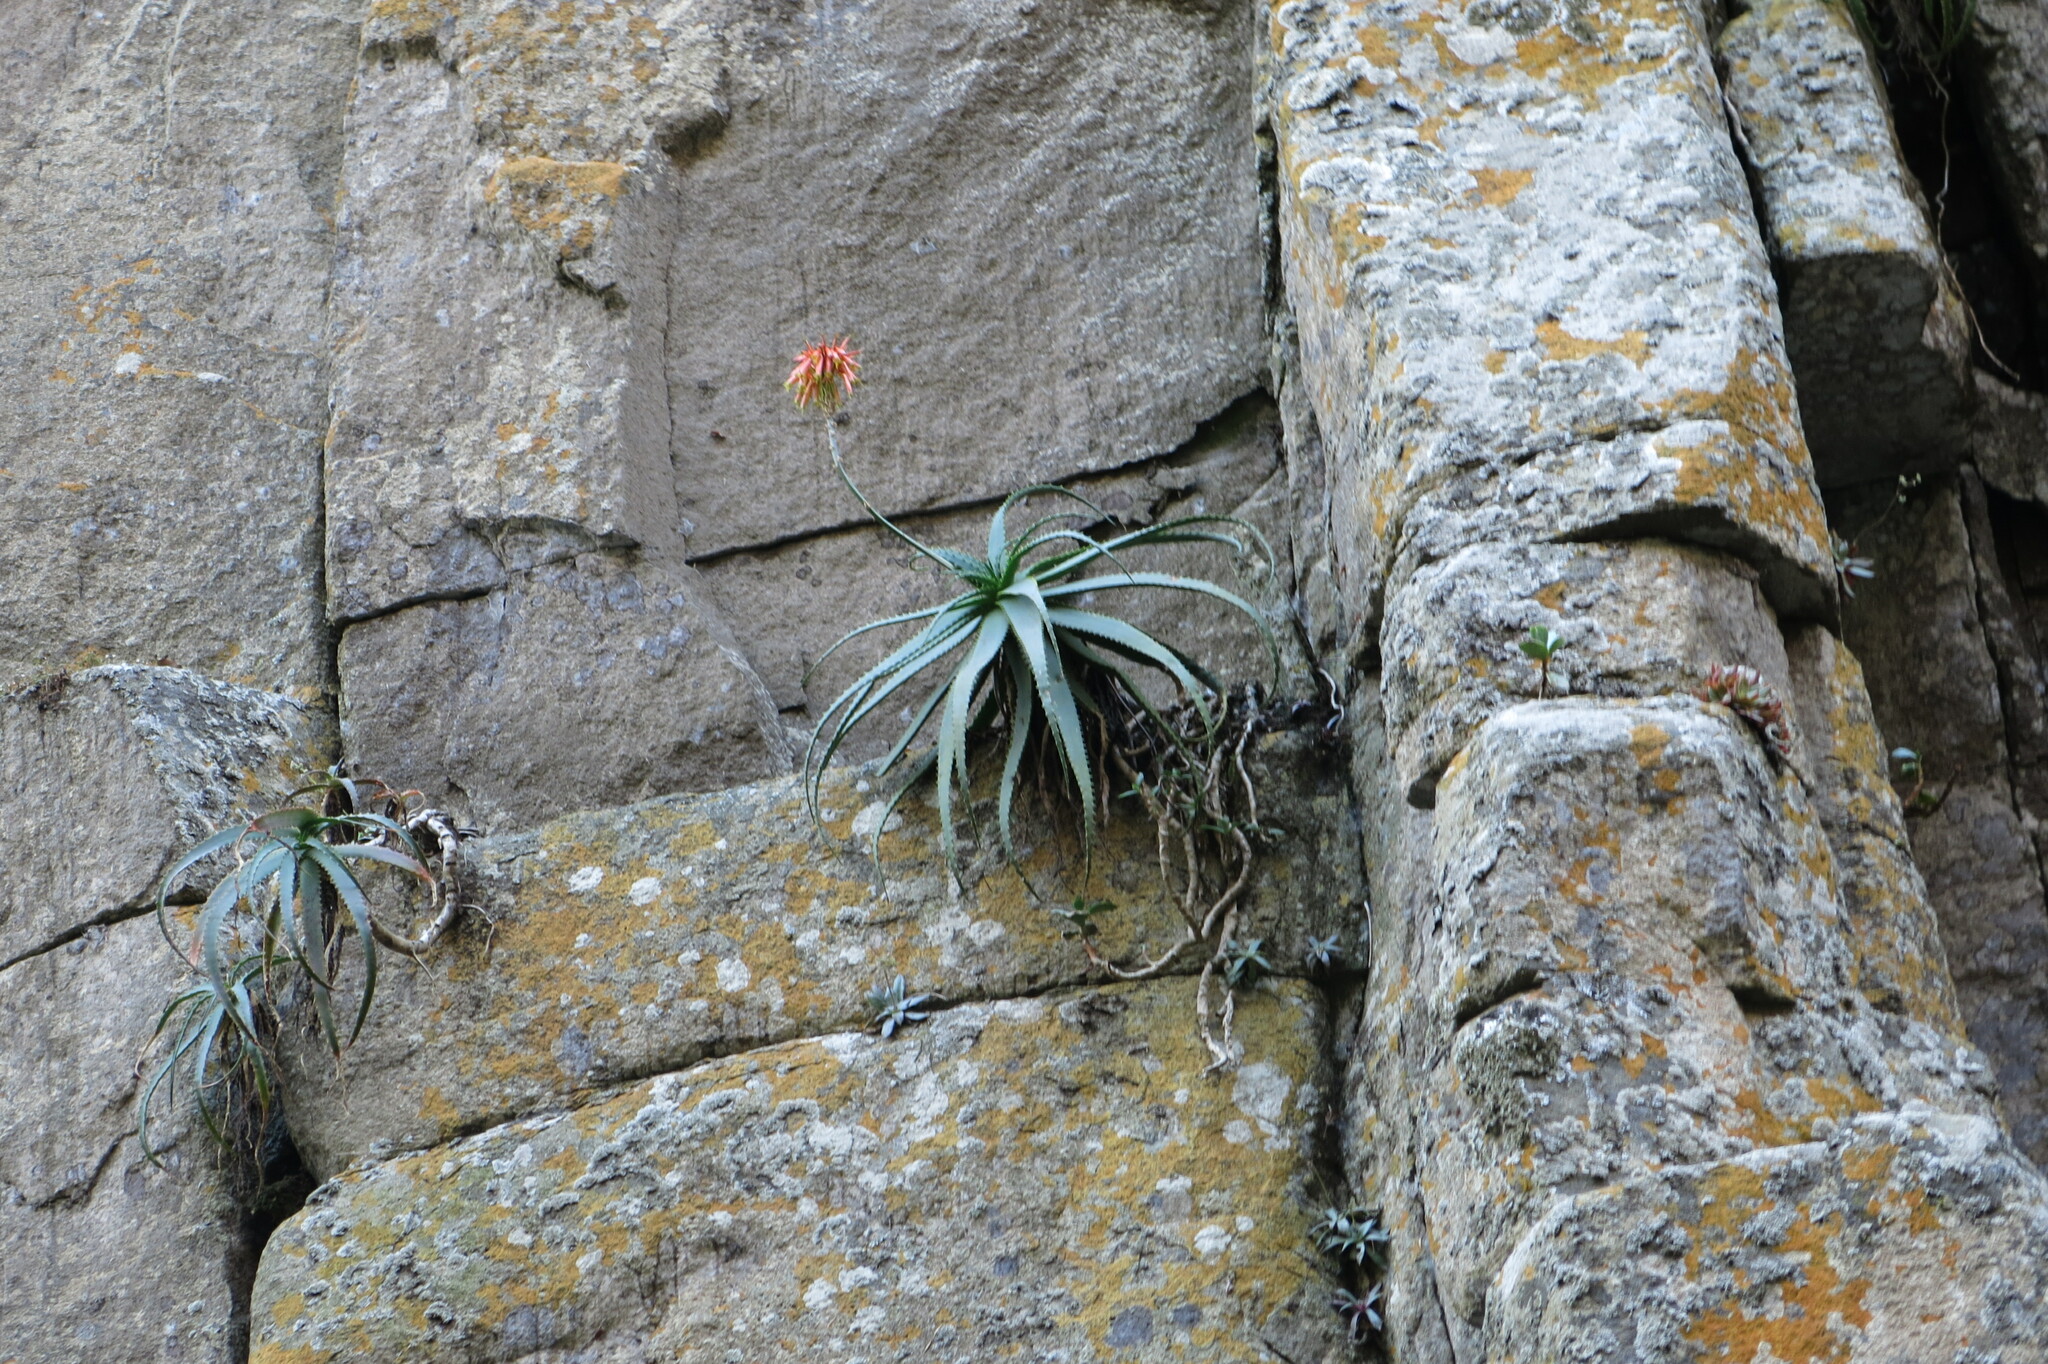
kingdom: Plantae
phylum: Tracheophyta
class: Liliopsida
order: Asparagales
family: Asphodelaceae
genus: Aloe
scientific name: Aloe arborescens
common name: Candelabra aloe
